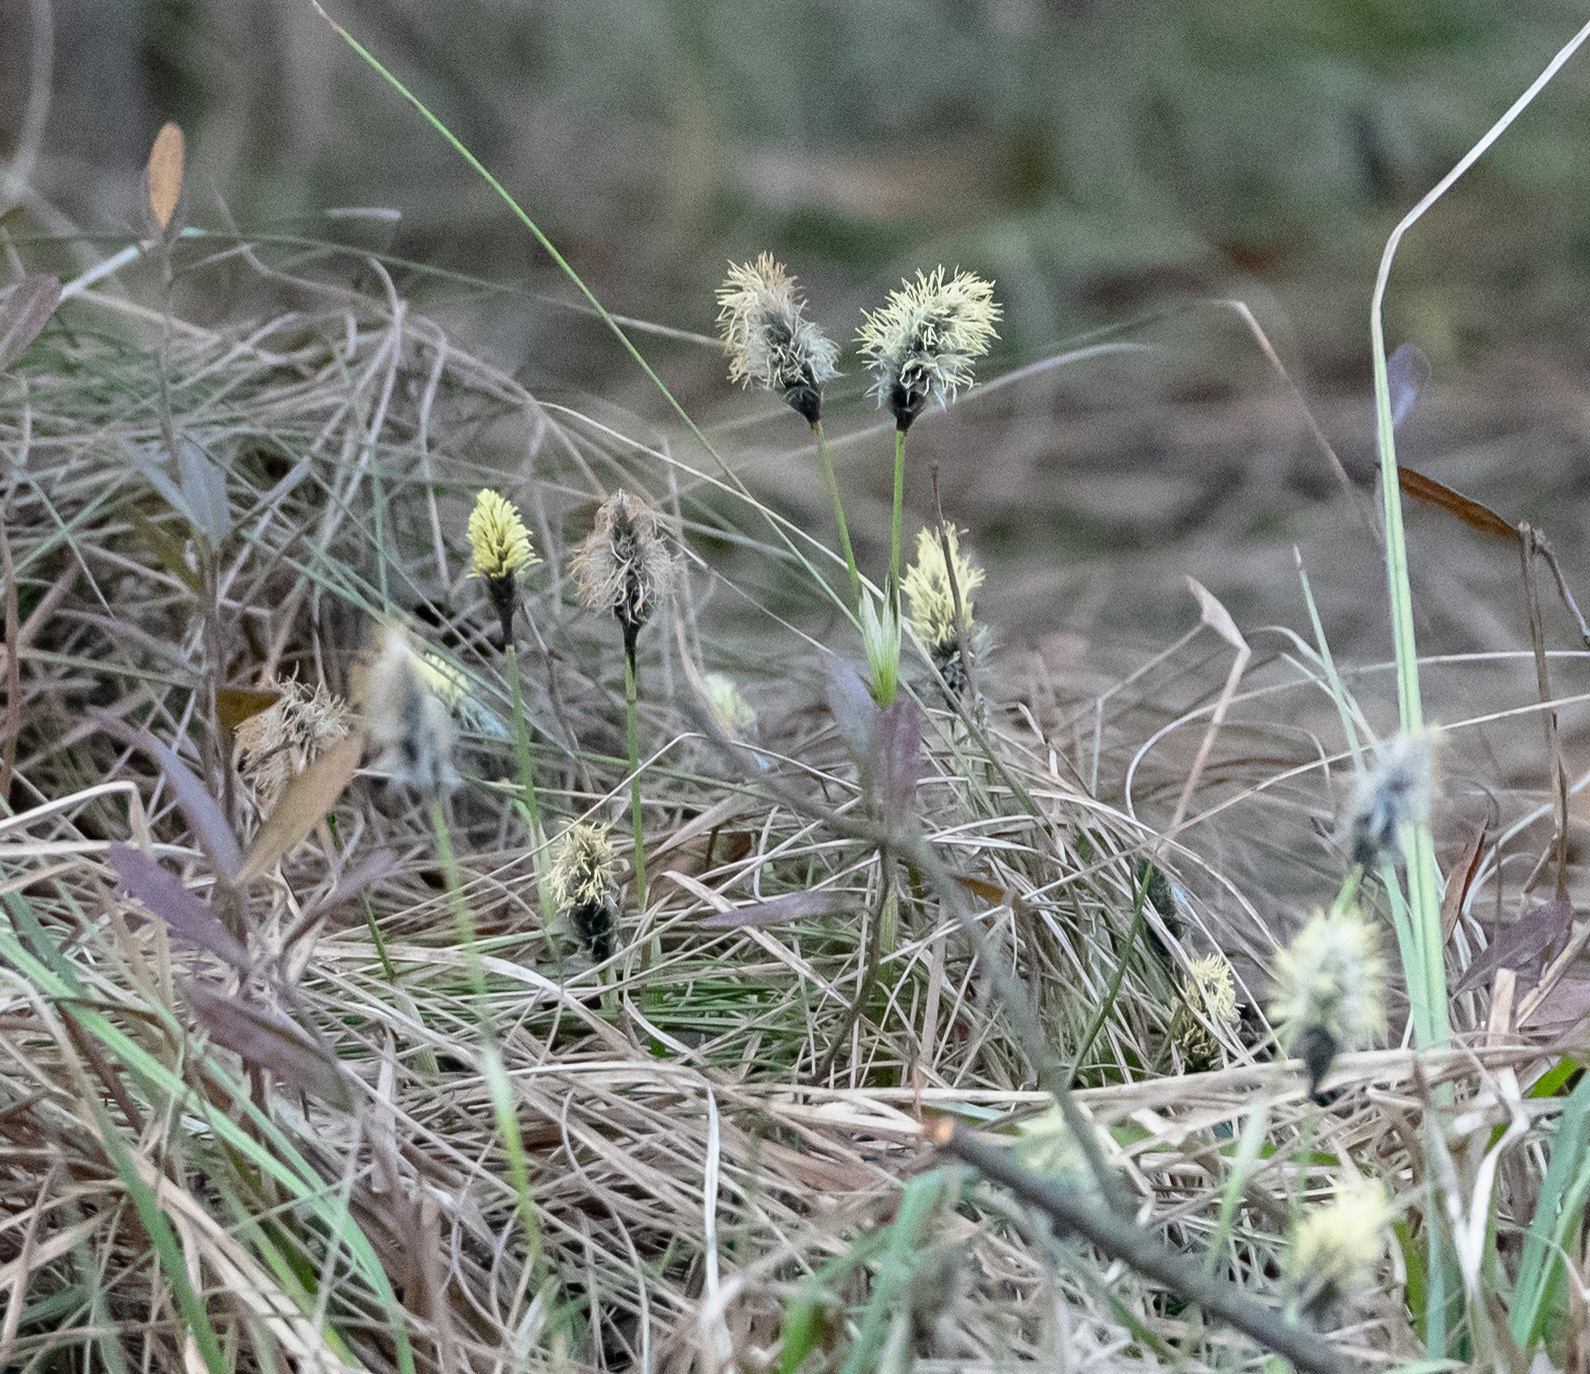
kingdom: Plantae
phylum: Tracheophyta
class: Liliopsida
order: Poales
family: Cyperaceae
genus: Eriophorum
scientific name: Eriophorum vaginatum
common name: Hare's-tail cottongrass
